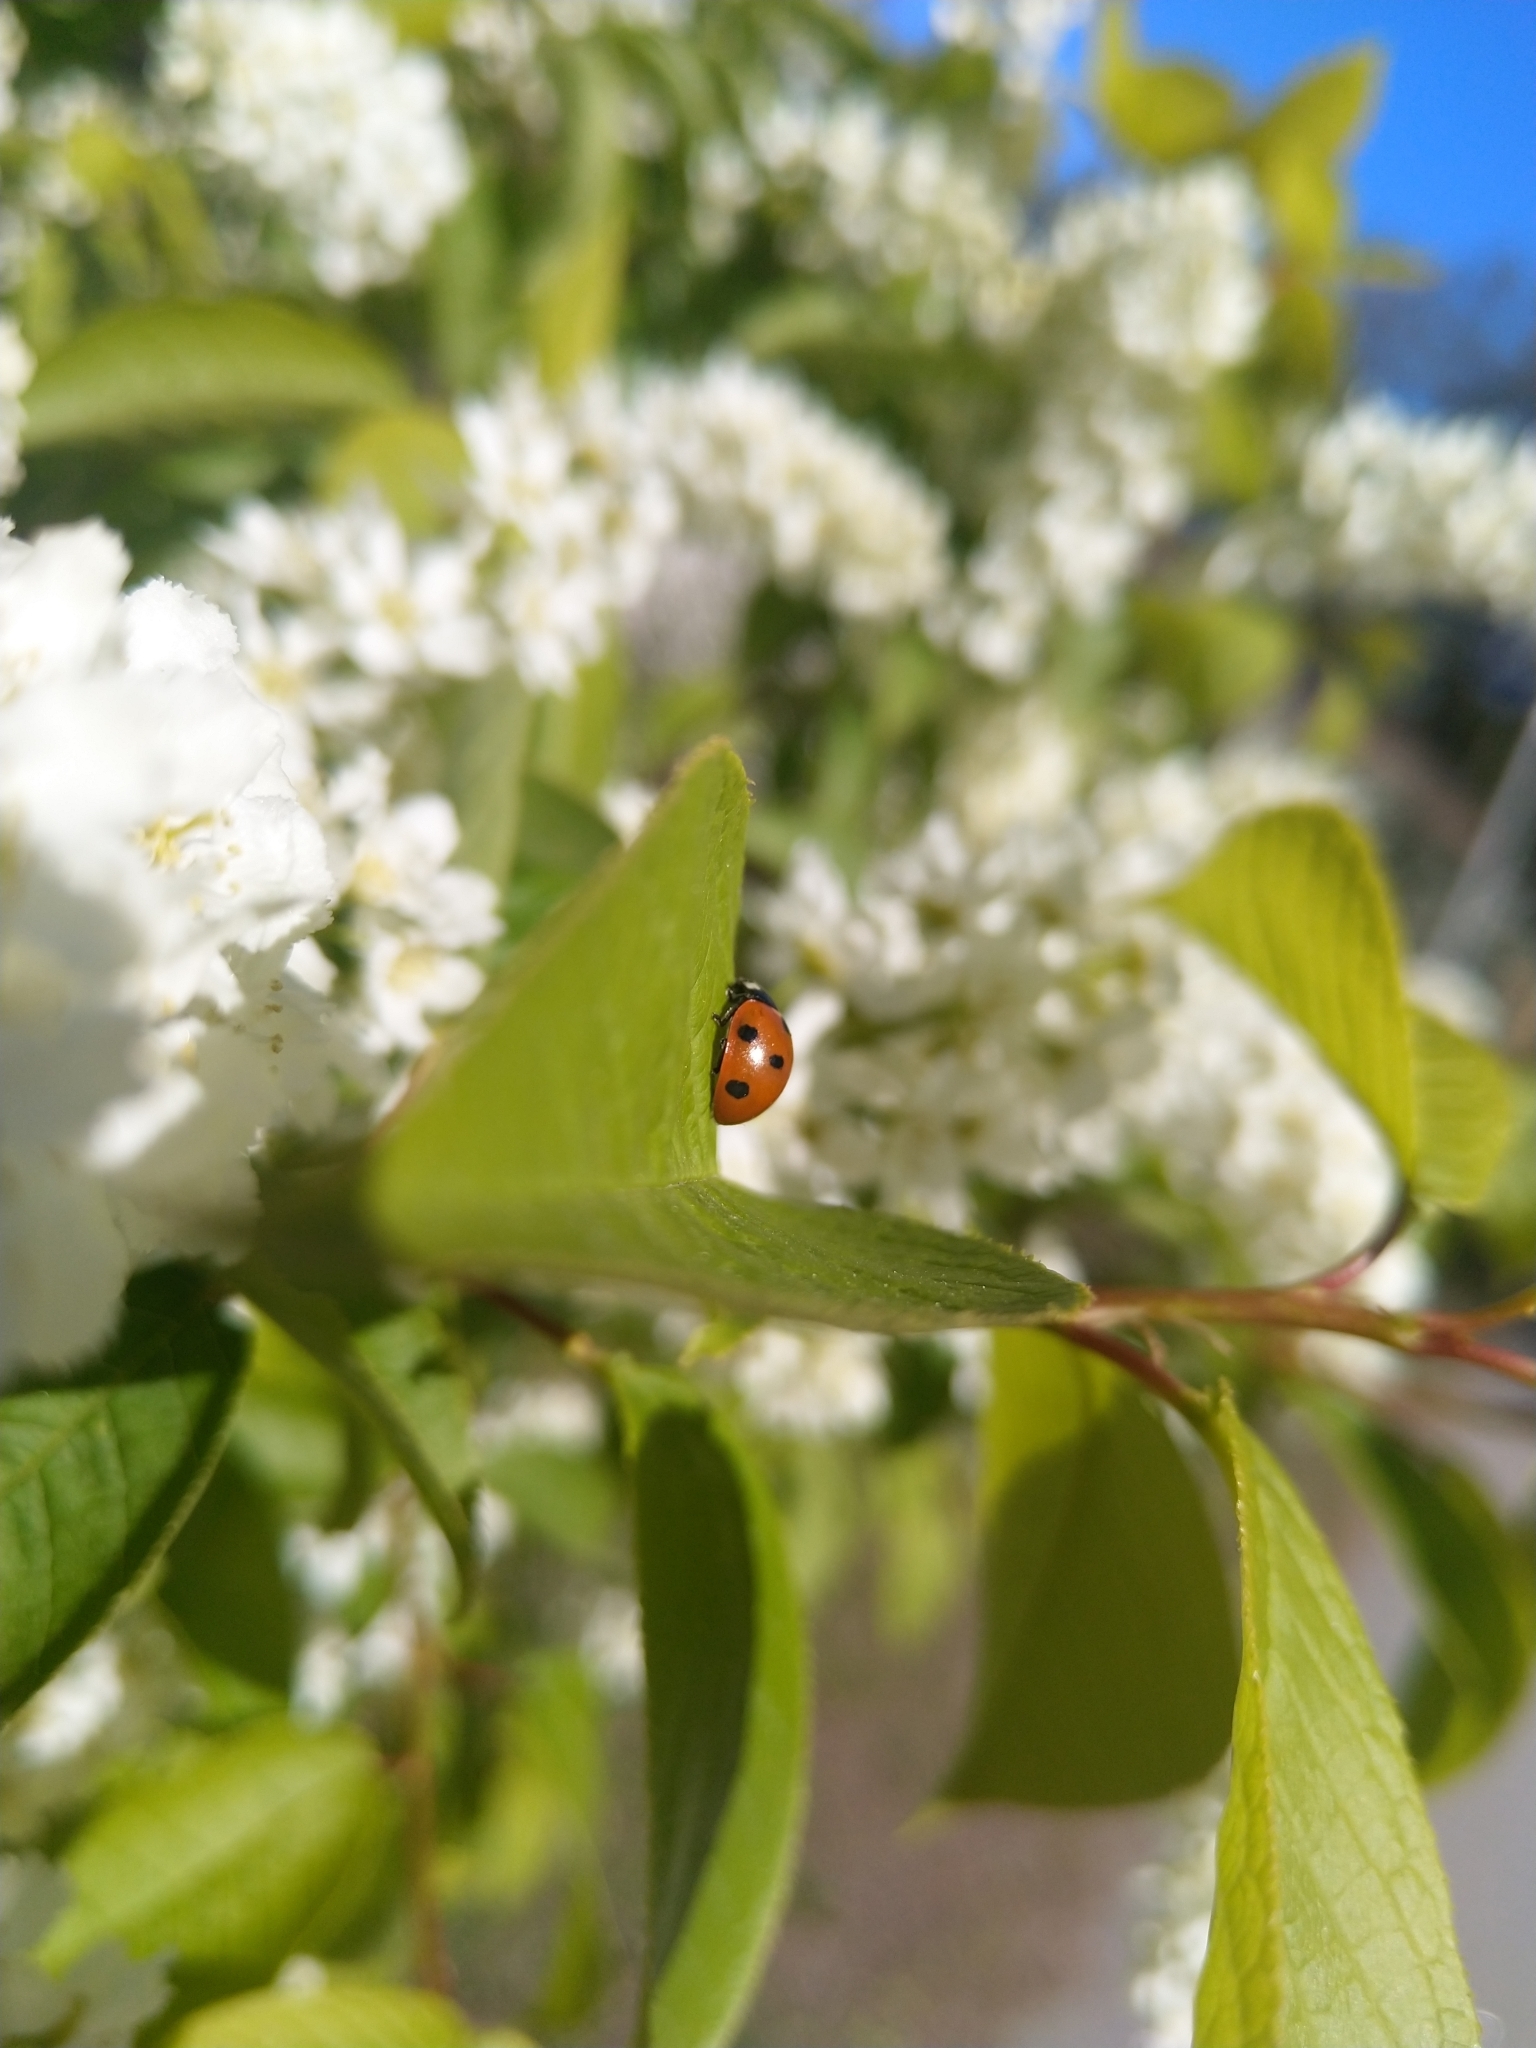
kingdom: Animalia
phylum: Arthropoda
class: Insecta
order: Coleoptera
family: Coccinellidae
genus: Coccinella
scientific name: Coccinella septempunctata
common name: Sevenspotted lady beetle
